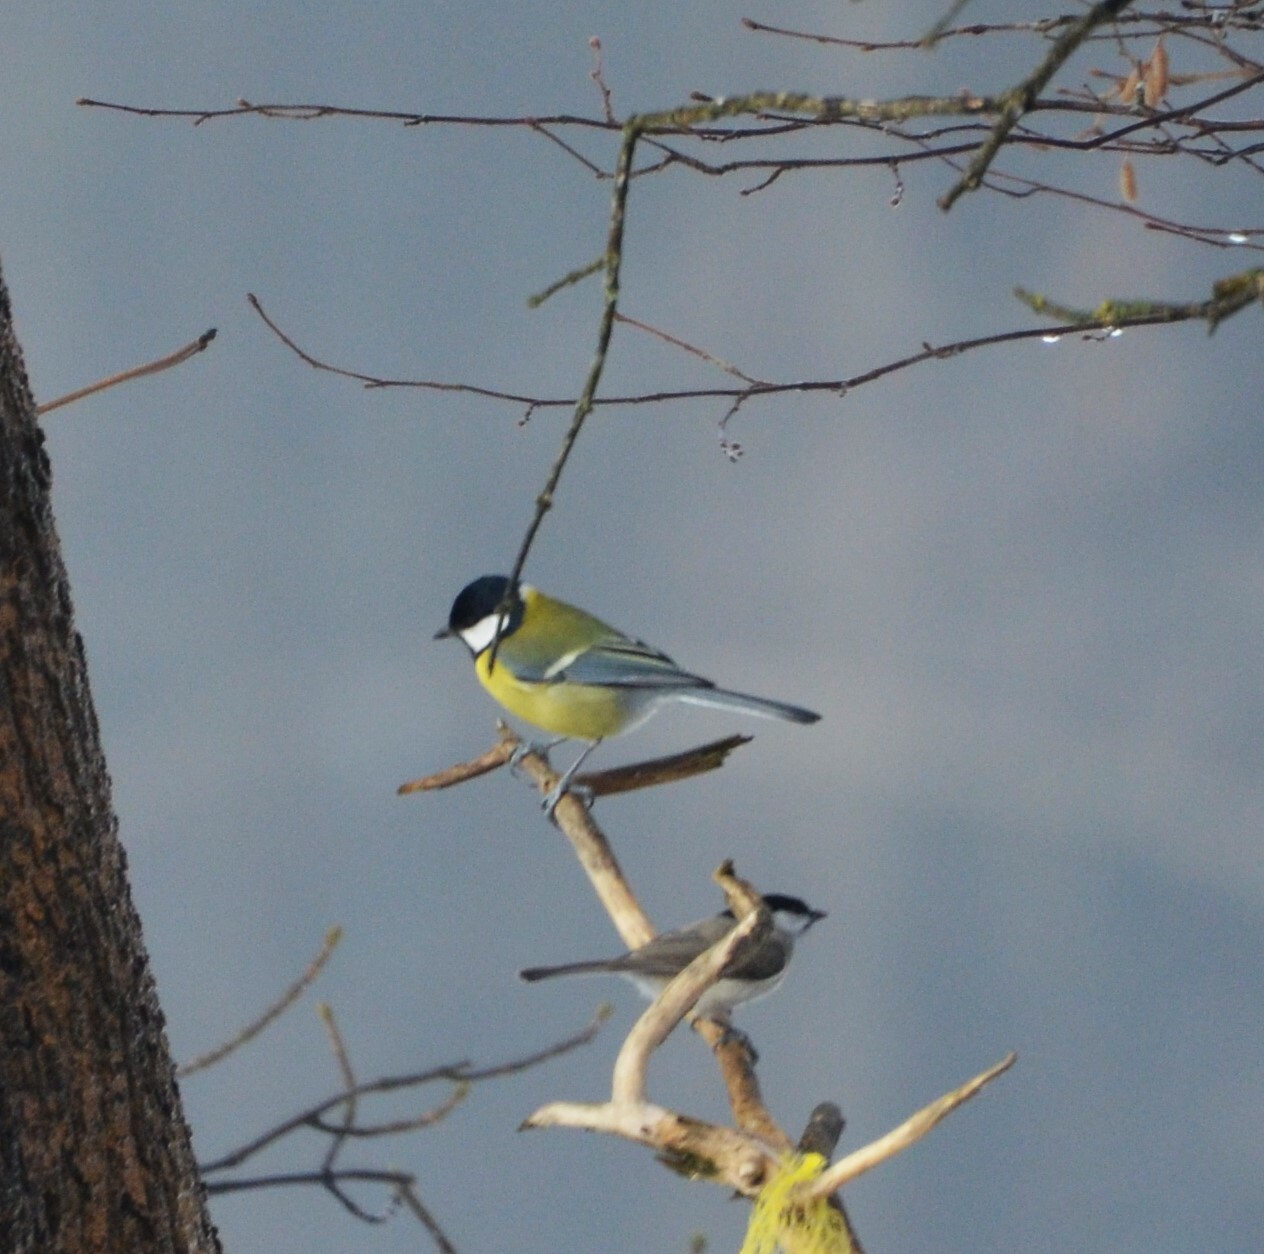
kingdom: Animalia
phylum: Chordata
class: Aves
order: Passeriformes
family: Paridae
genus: Parus
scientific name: Parus major
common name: Great tit
